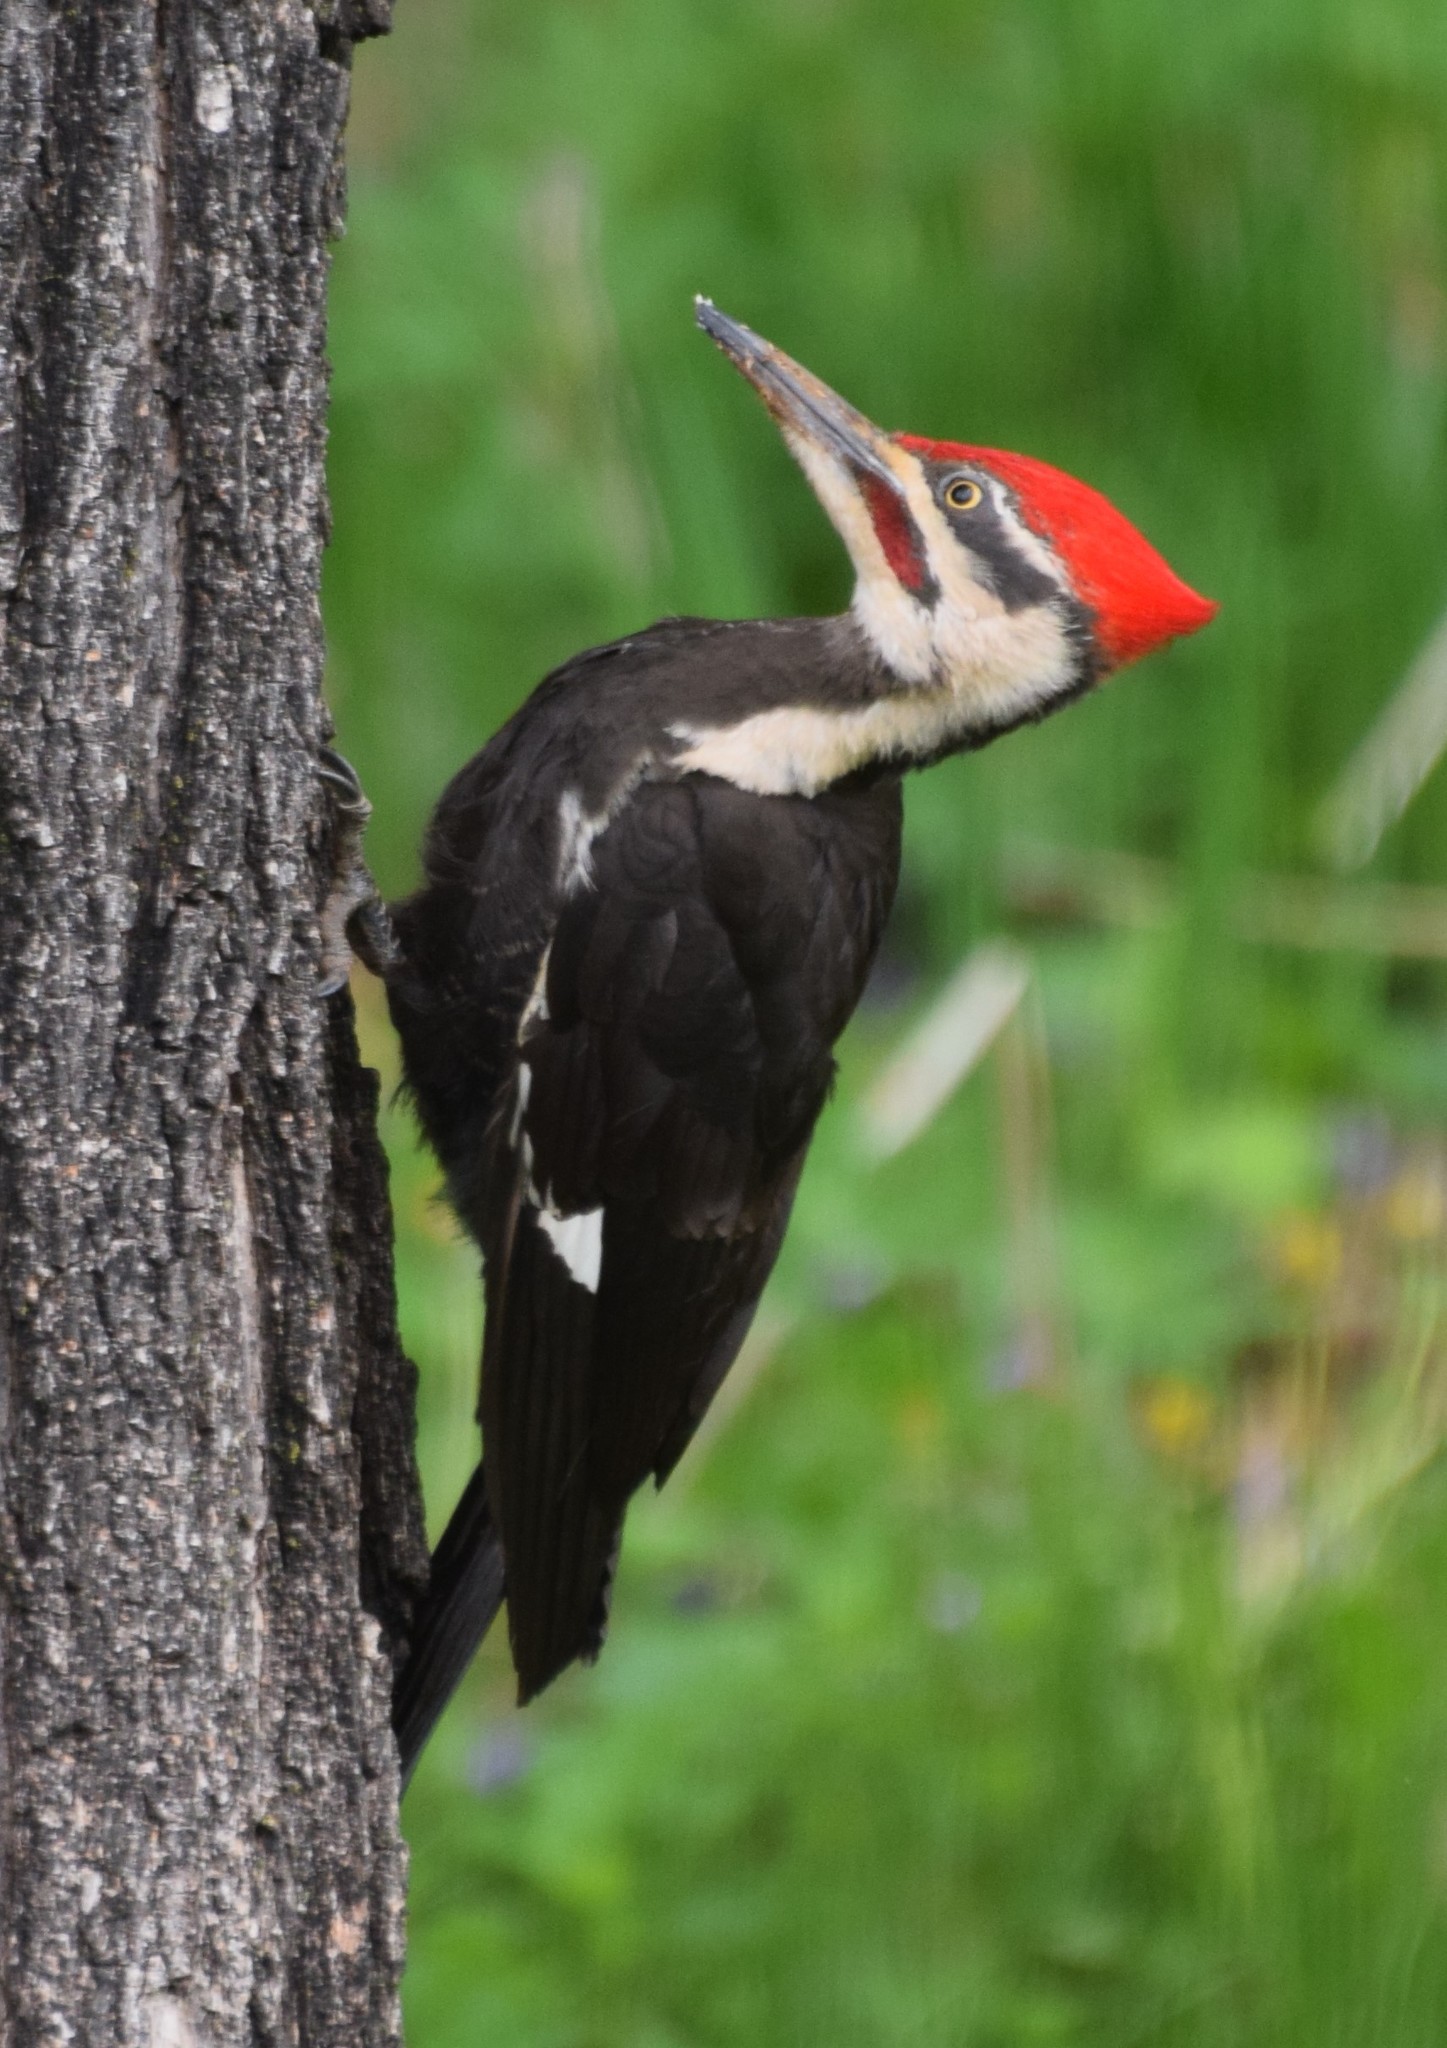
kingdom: Animalia
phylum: Chordata
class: Aves
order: Piciformes
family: Picidae
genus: Dryocopus
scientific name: Dryocopus pileatus
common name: Pileated woodpecker
